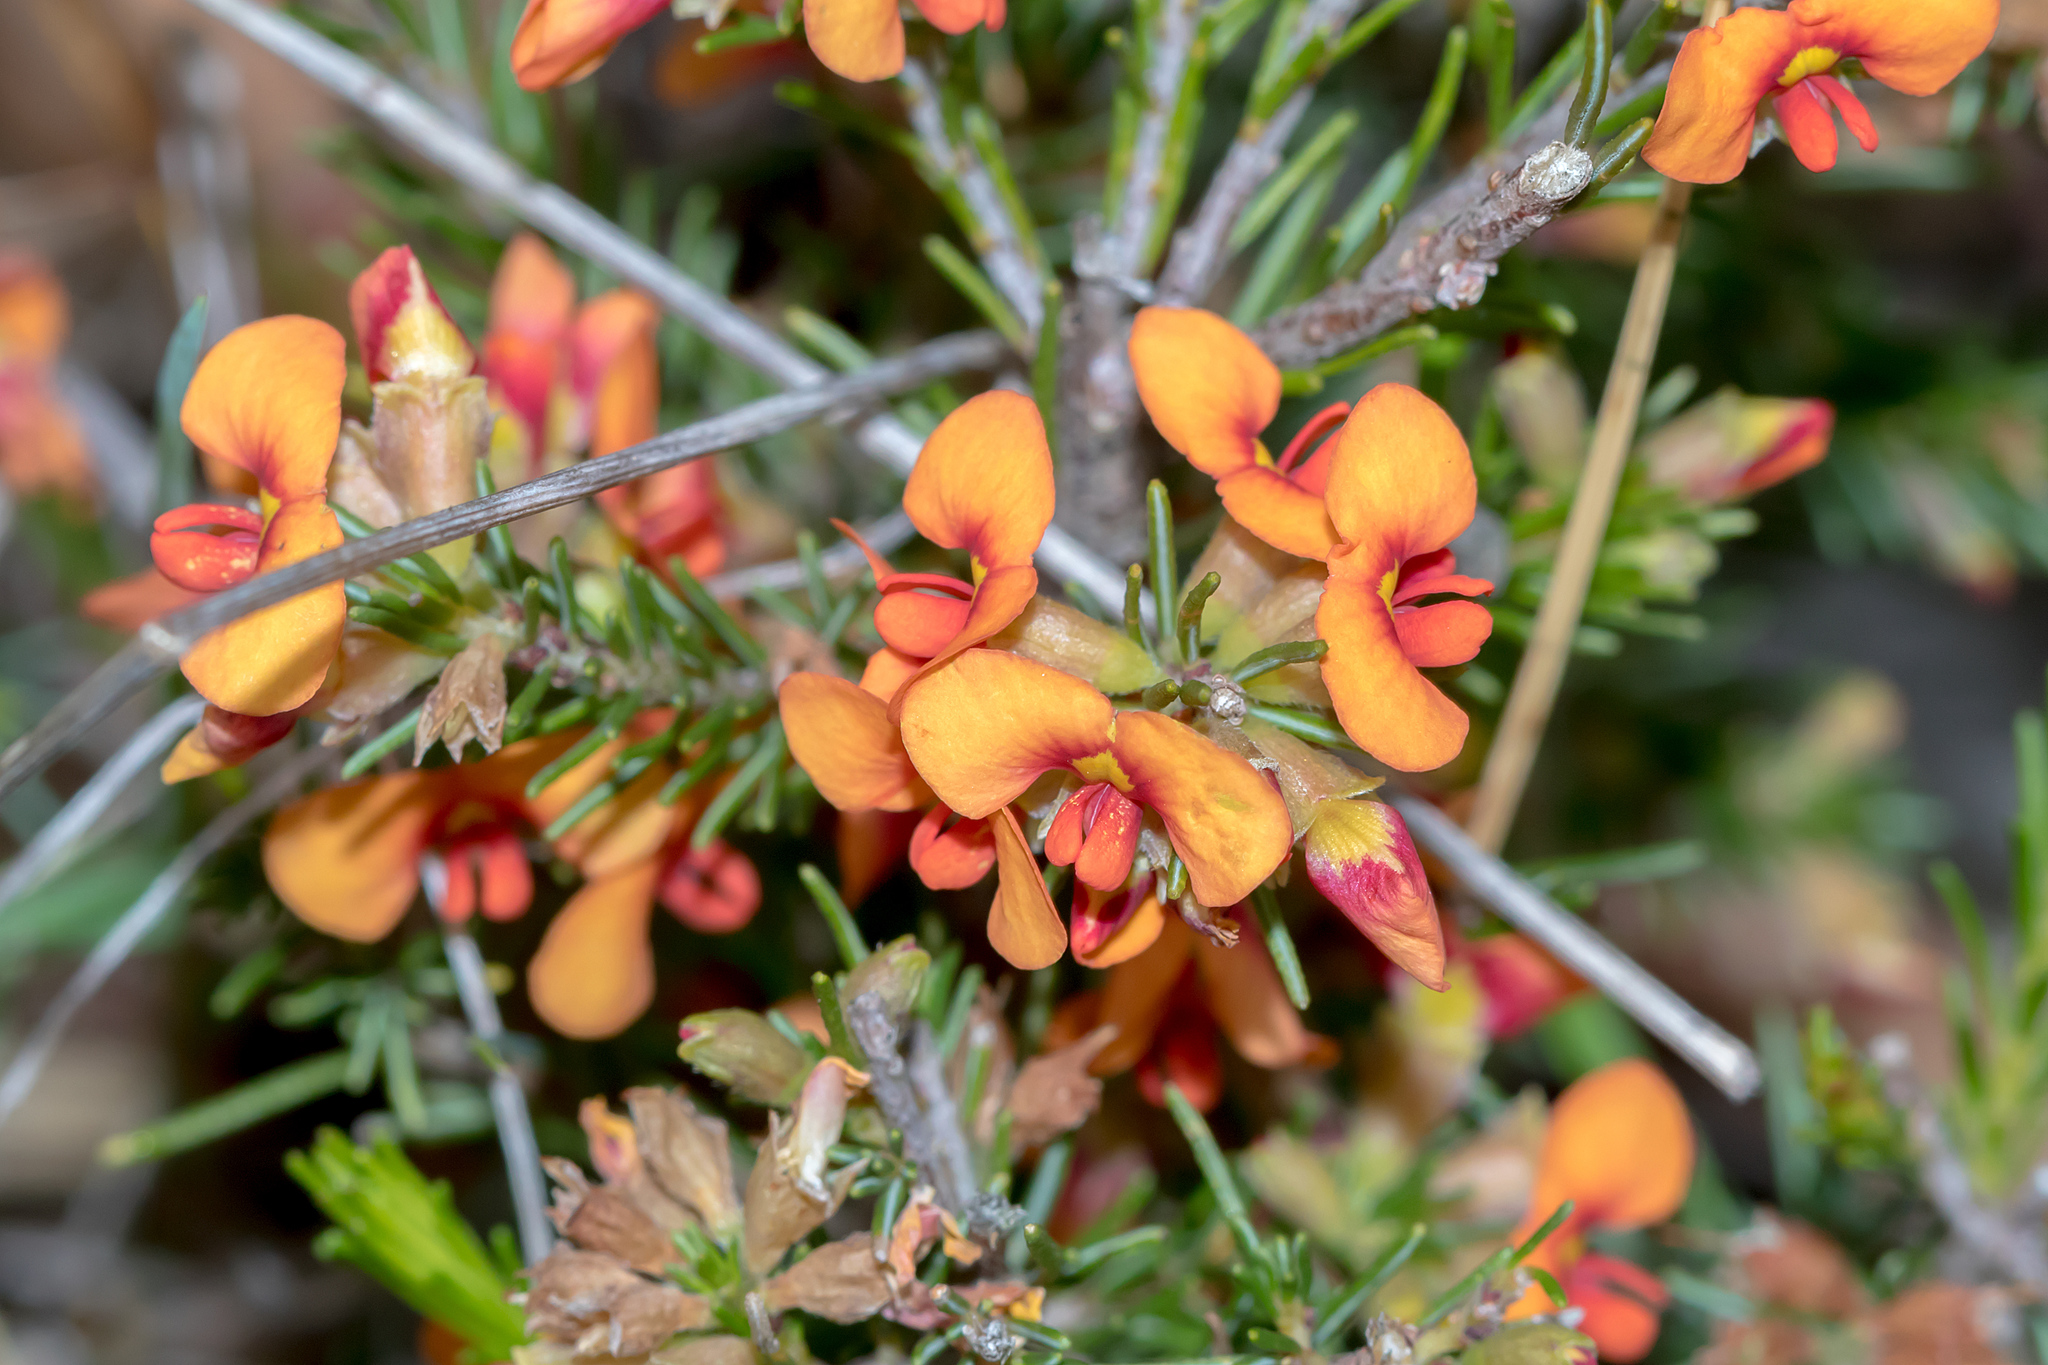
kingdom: Plantae
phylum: Tracheophyta
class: Magnoliopsida
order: Fabales
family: Fabaceae
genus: Dillwynia
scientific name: Dillwynia sericea
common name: Showy parrot-pea
